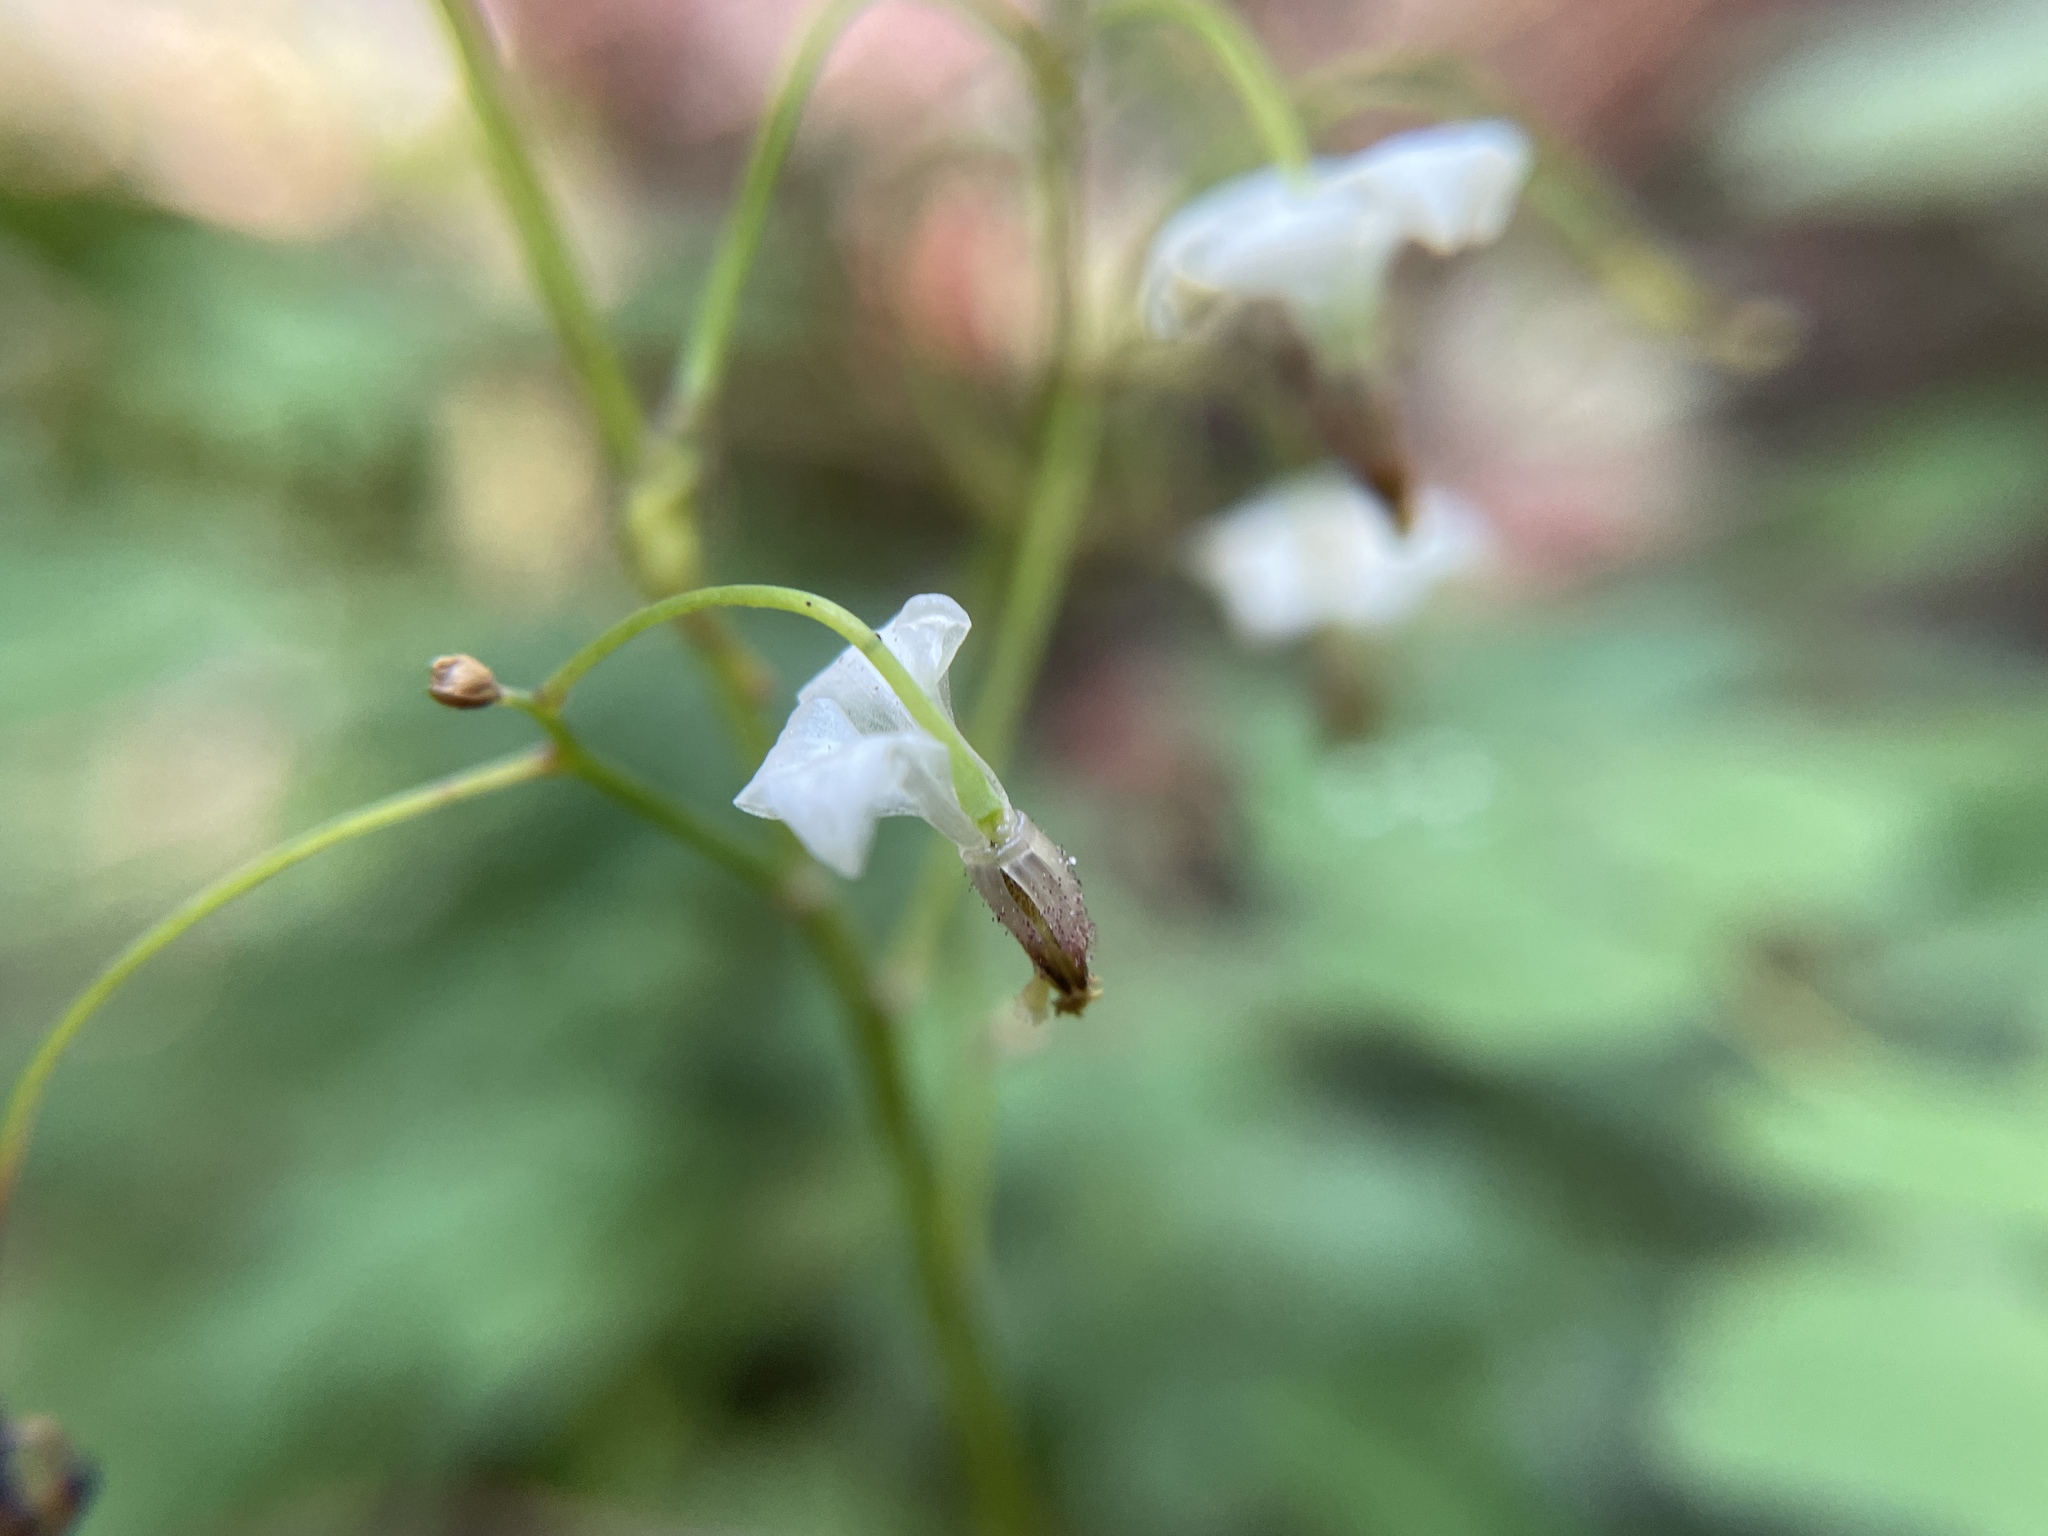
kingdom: Plantae
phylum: Tracheophyta
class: Magnoliopsida
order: Ranunculales
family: Berberidaceae
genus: Vancouveria
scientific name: Vancouveria hexandra
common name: Northern inside-out-flower
